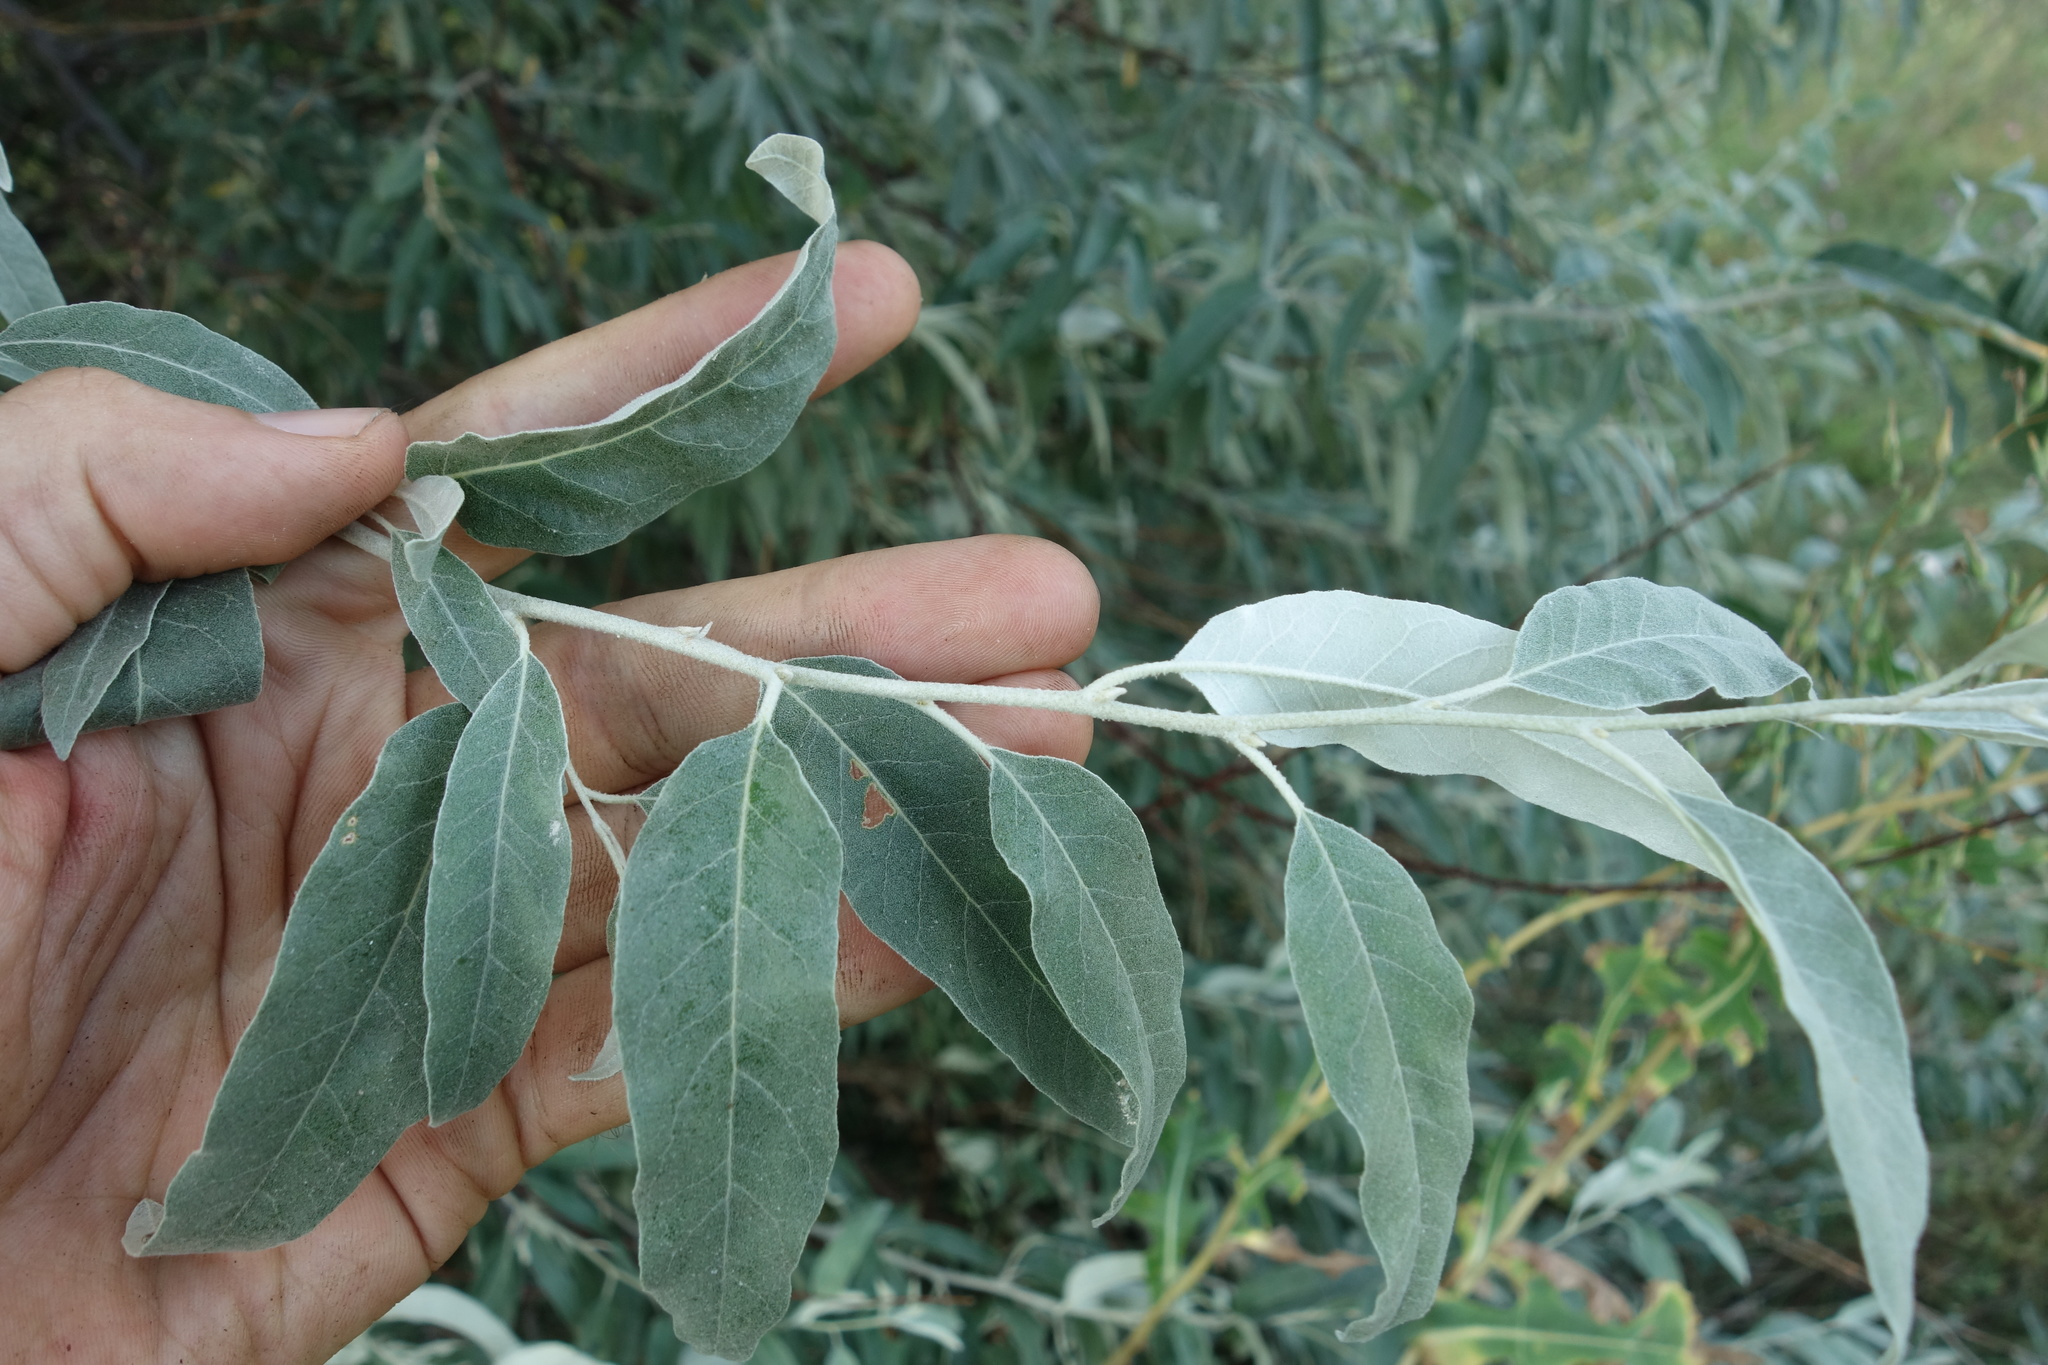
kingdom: Plantae
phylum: Tracheophyta
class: Magnoliopsida
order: Rosales
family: Elaeagnaceae
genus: Elaeagnus
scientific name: Elaeagnus angustifolia
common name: Russian olive
